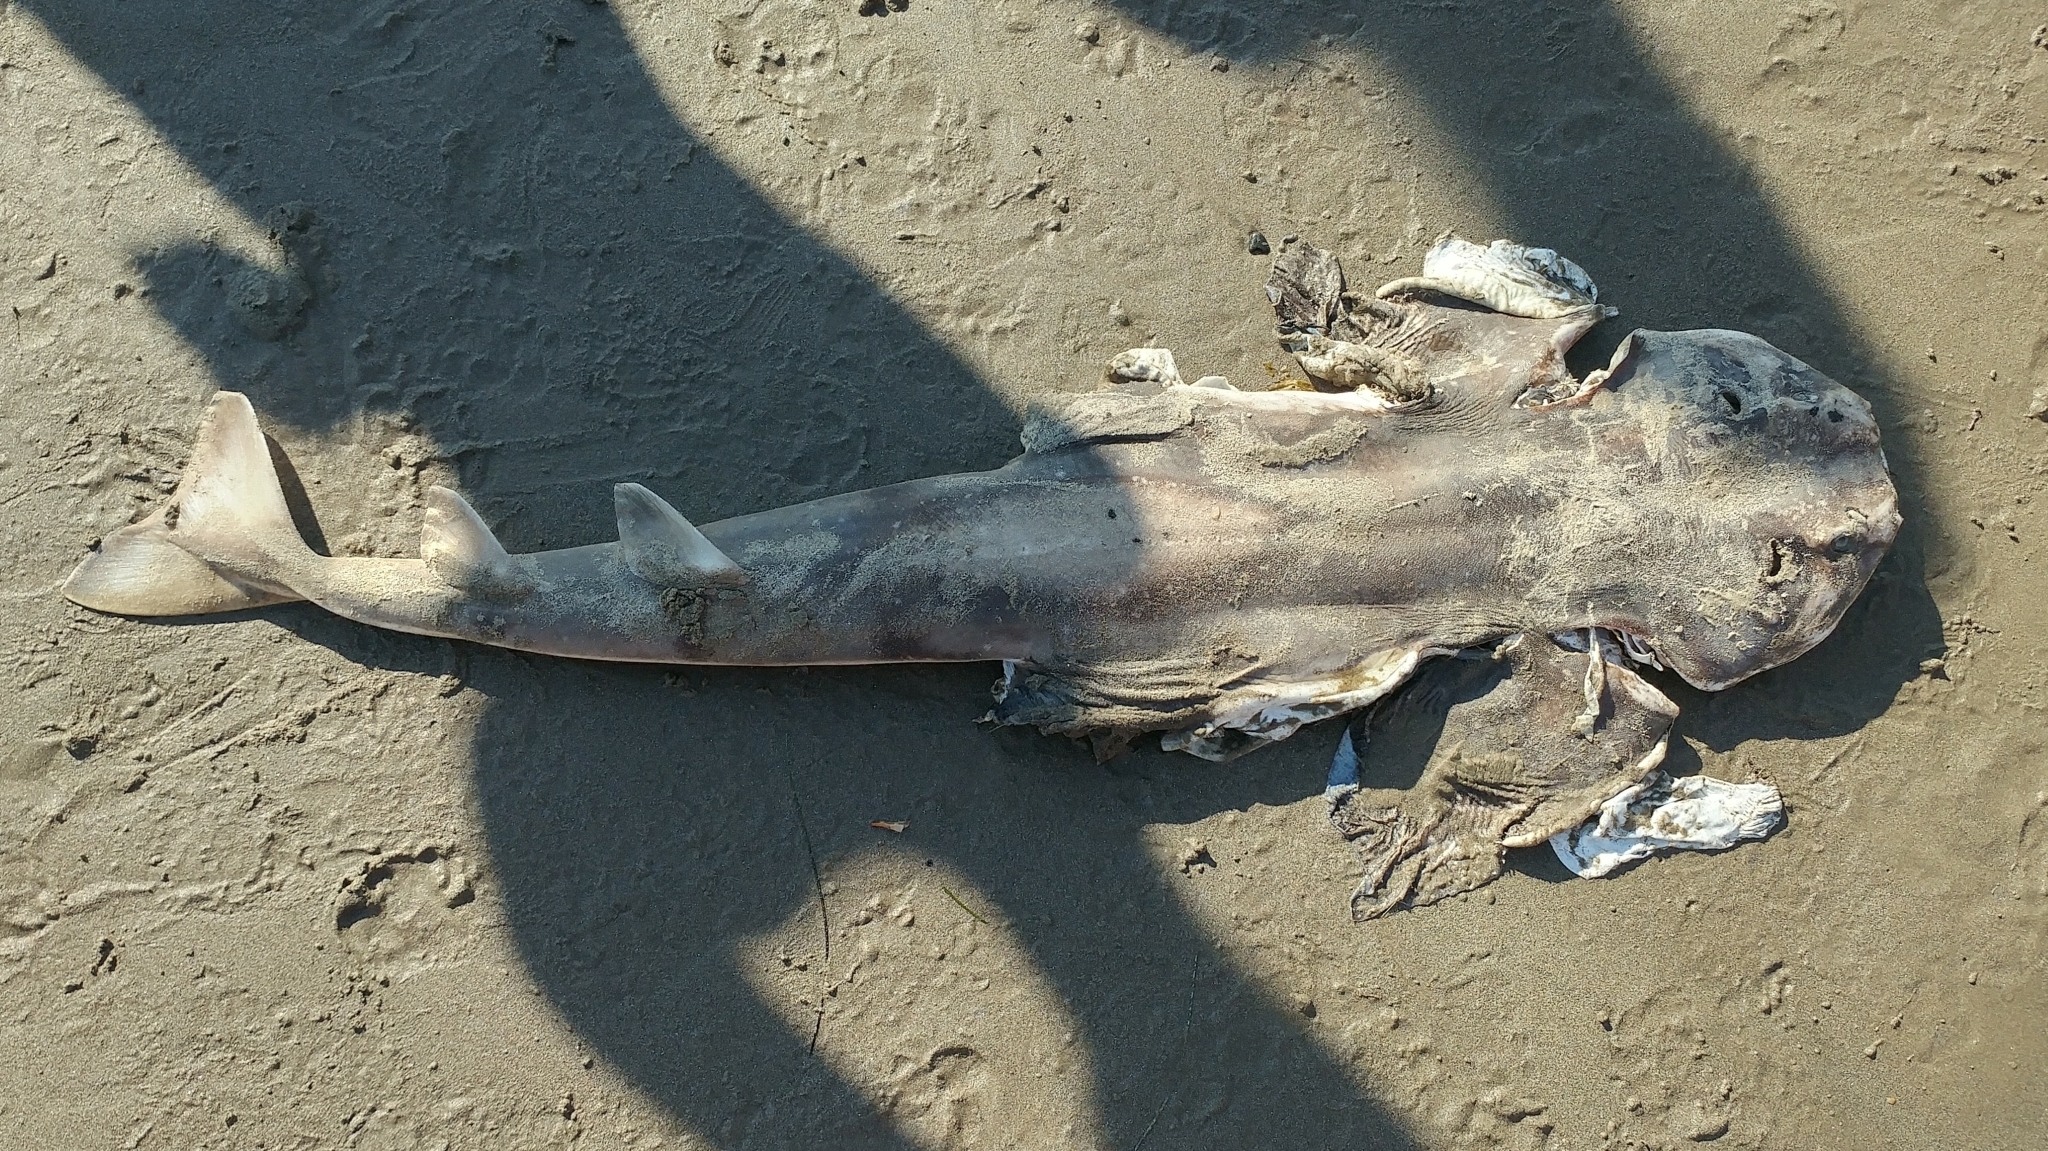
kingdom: Animalia
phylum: Chordata
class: Elasmobranchii
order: Squatiniformes
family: Squatinidae
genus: Squatina
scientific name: Squatina californica
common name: Pacific angel shark
